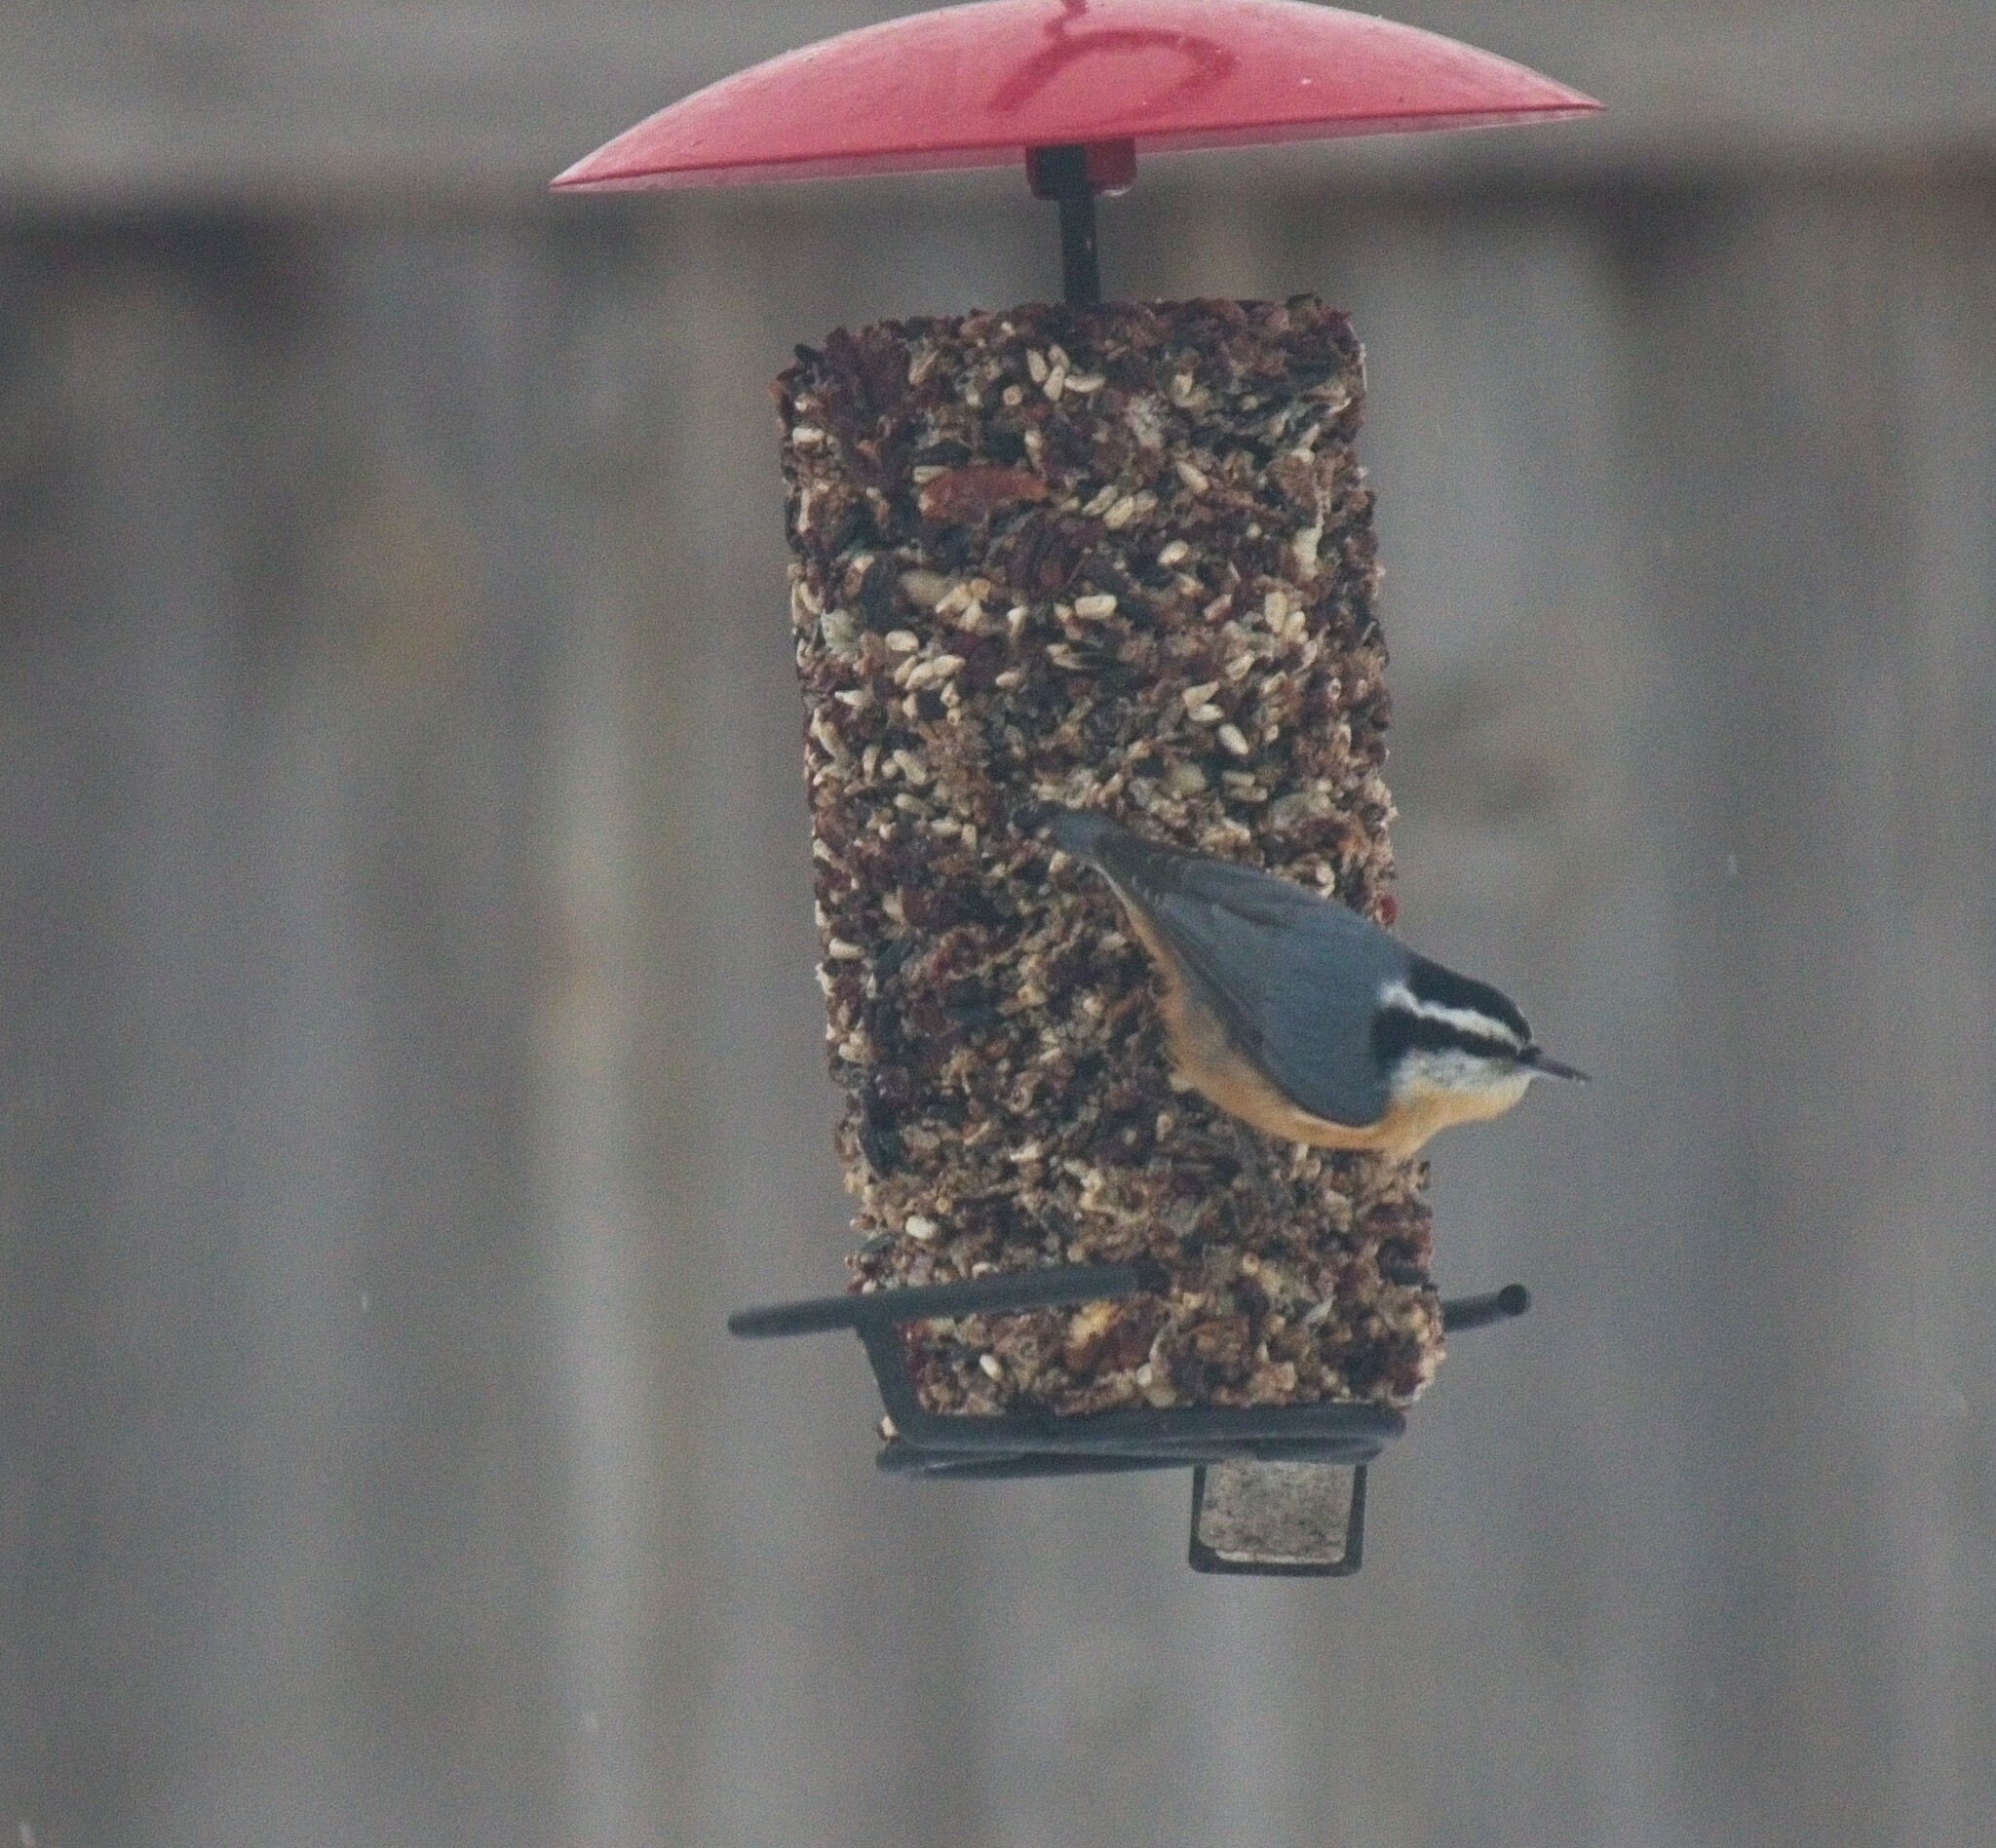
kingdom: Animalia
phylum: Chordata
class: Aves
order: Passeriformes
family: Sittidae
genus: Sitta
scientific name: Sitta canadensis
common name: Red-breasted nuthatch
